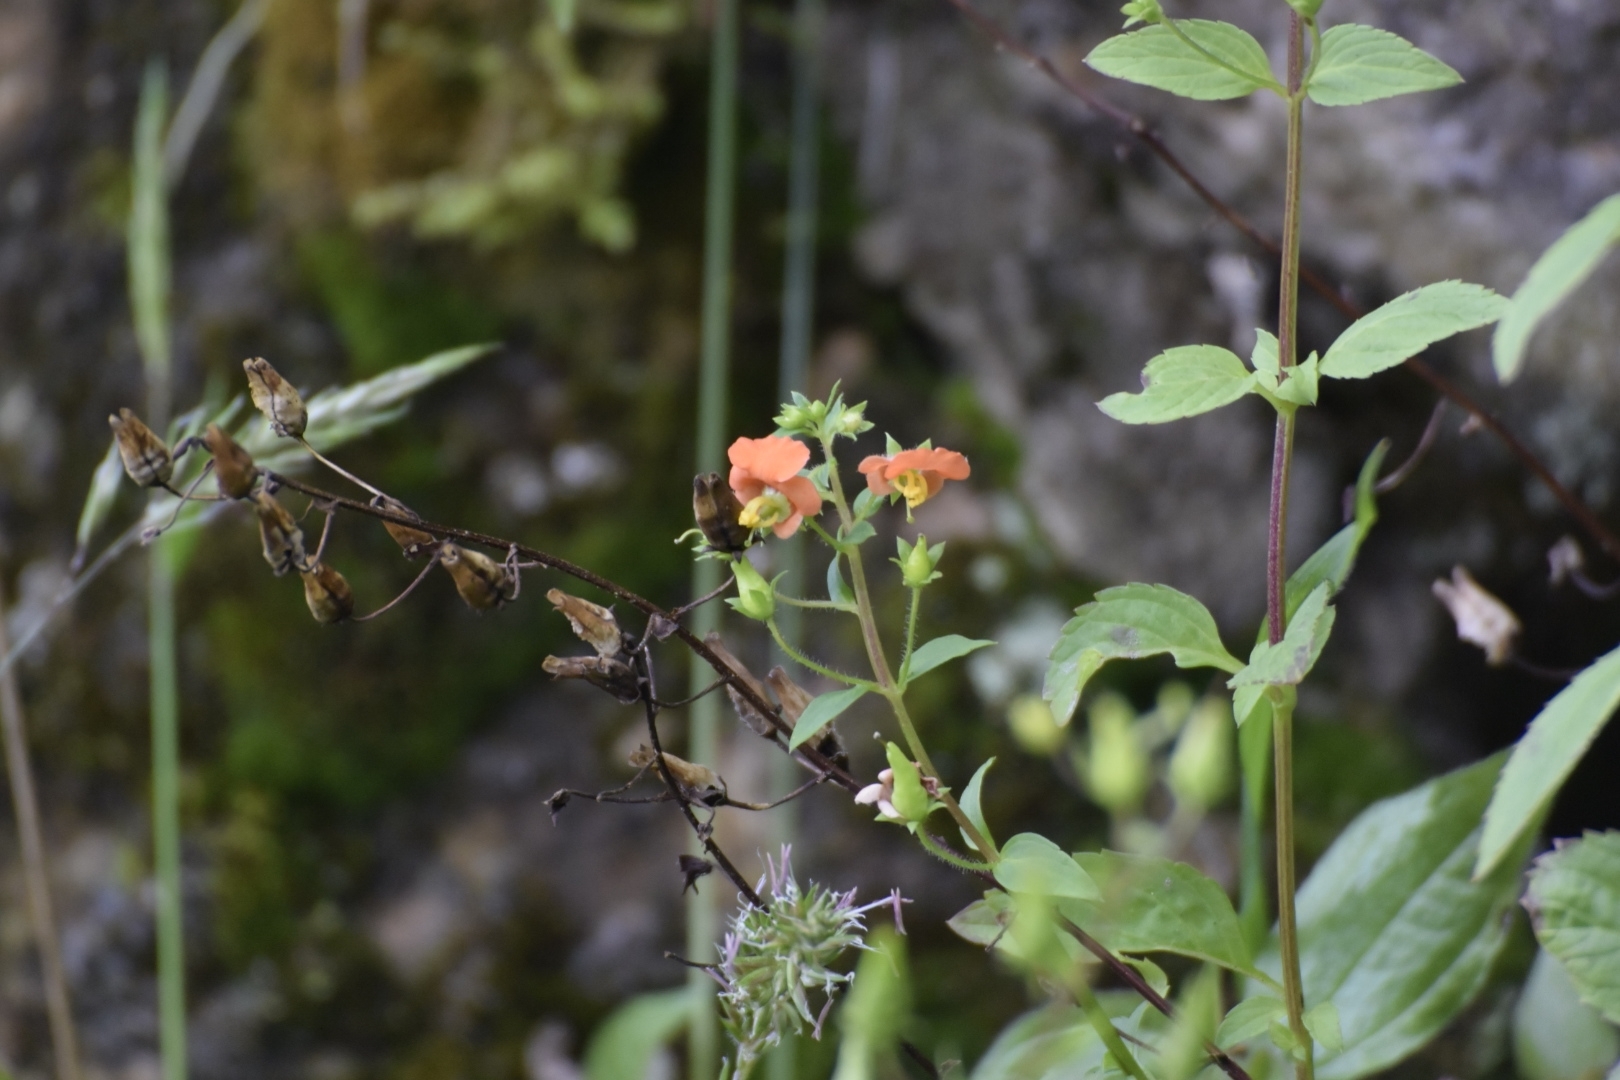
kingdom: Plantae
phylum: Tracheophyta
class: Magnoliopsida
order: Lamiales
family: Scrophulariaceae
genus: Alonsoa
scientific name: Alonsoa meridionalis
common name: Maskflower
